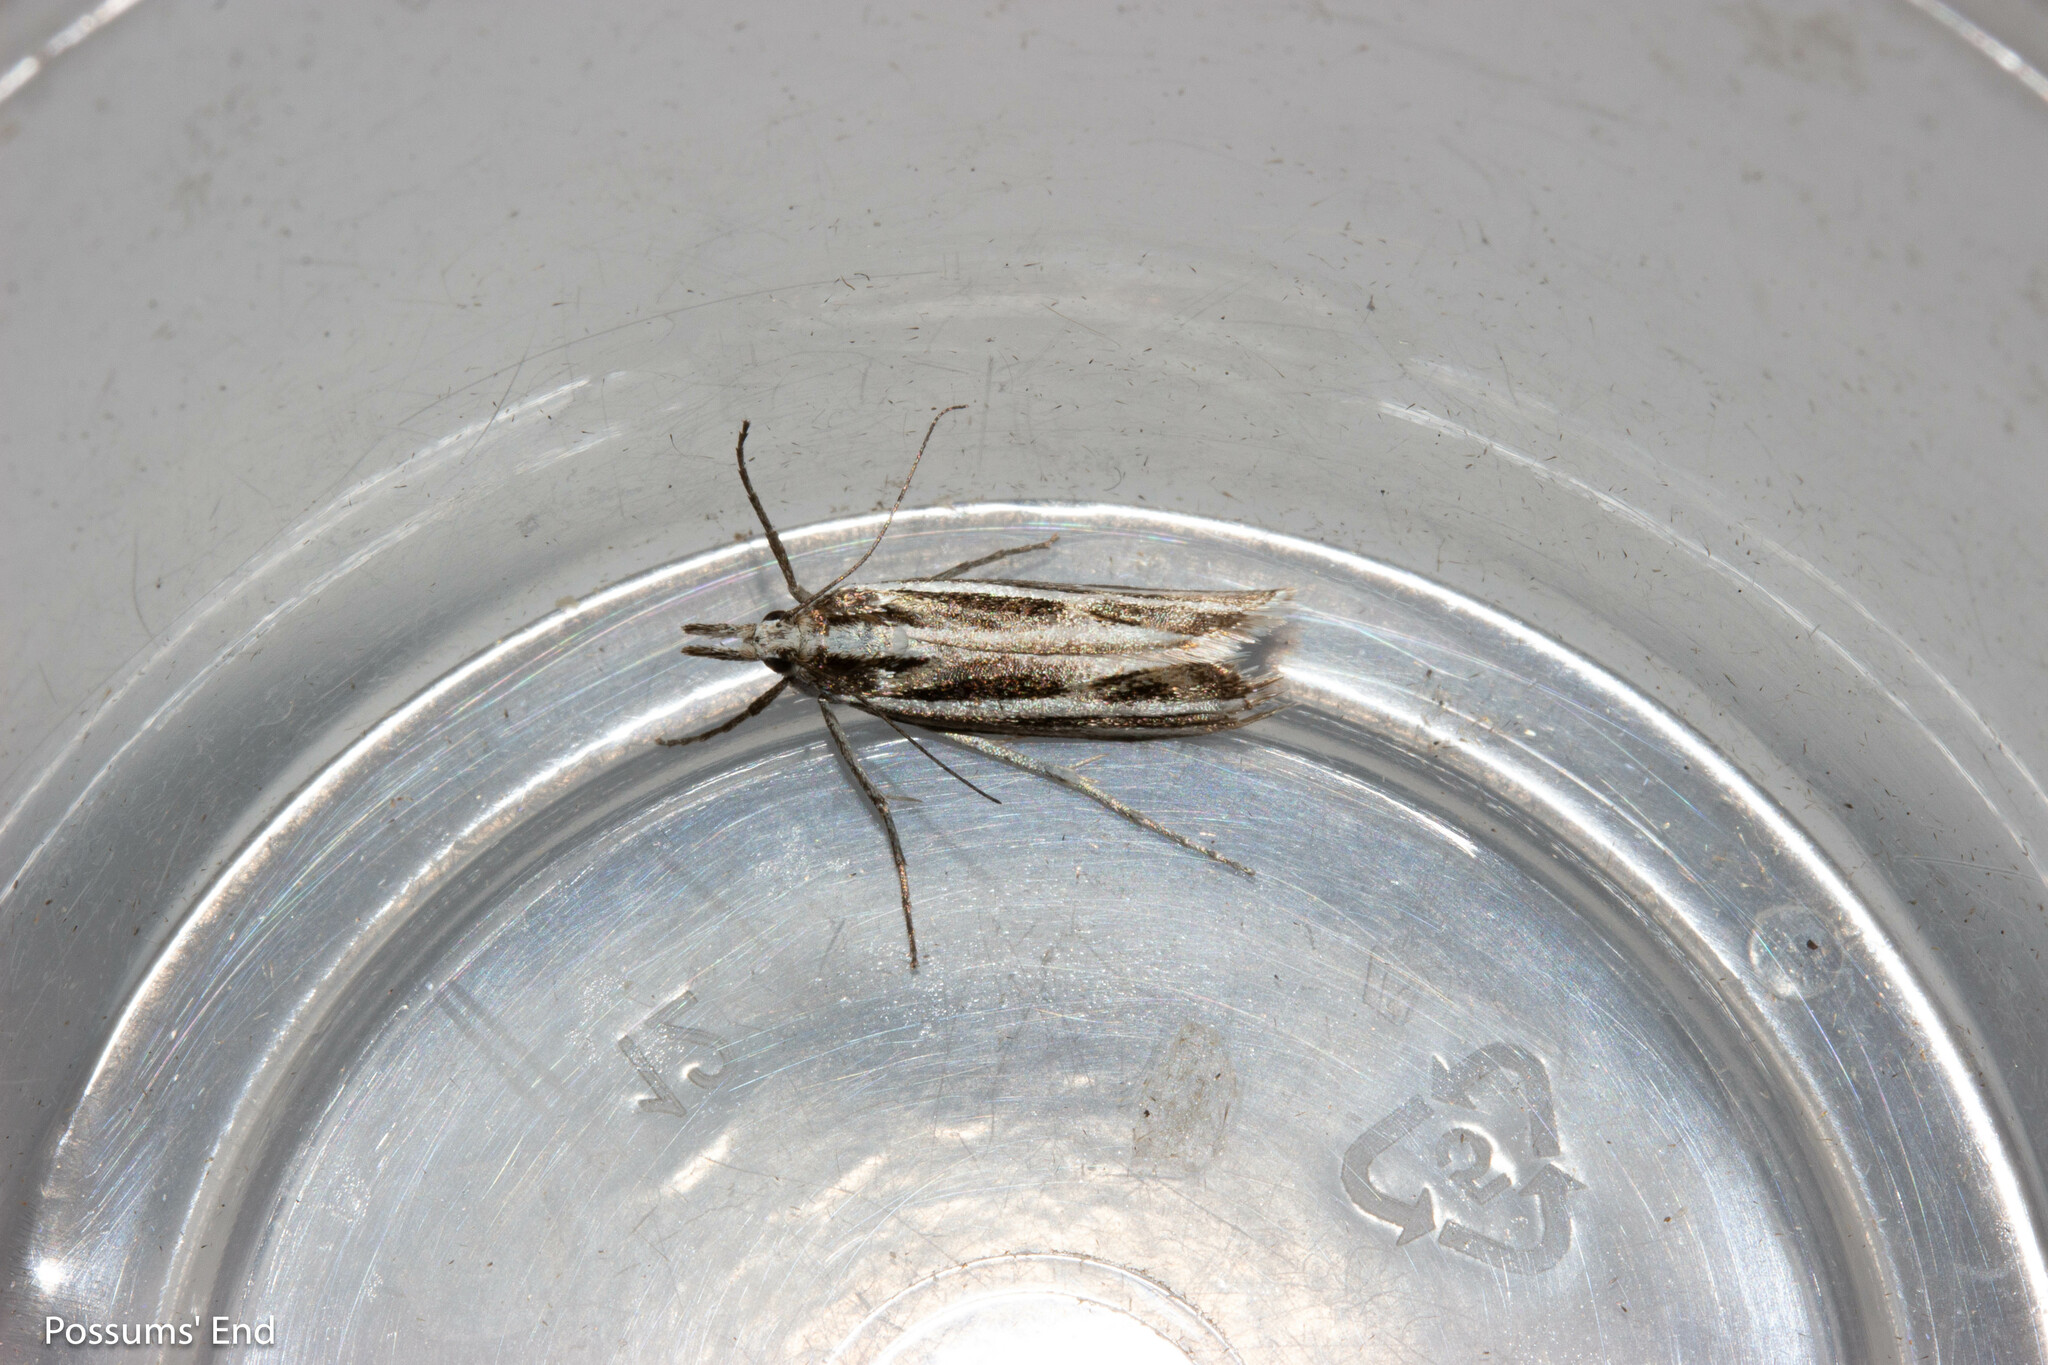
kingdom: Animalia
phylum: Arthropoda
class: Insecta
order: Lepidoptera
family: Crambidae
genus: Orocrambus
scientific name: Orocrambus corruptus
